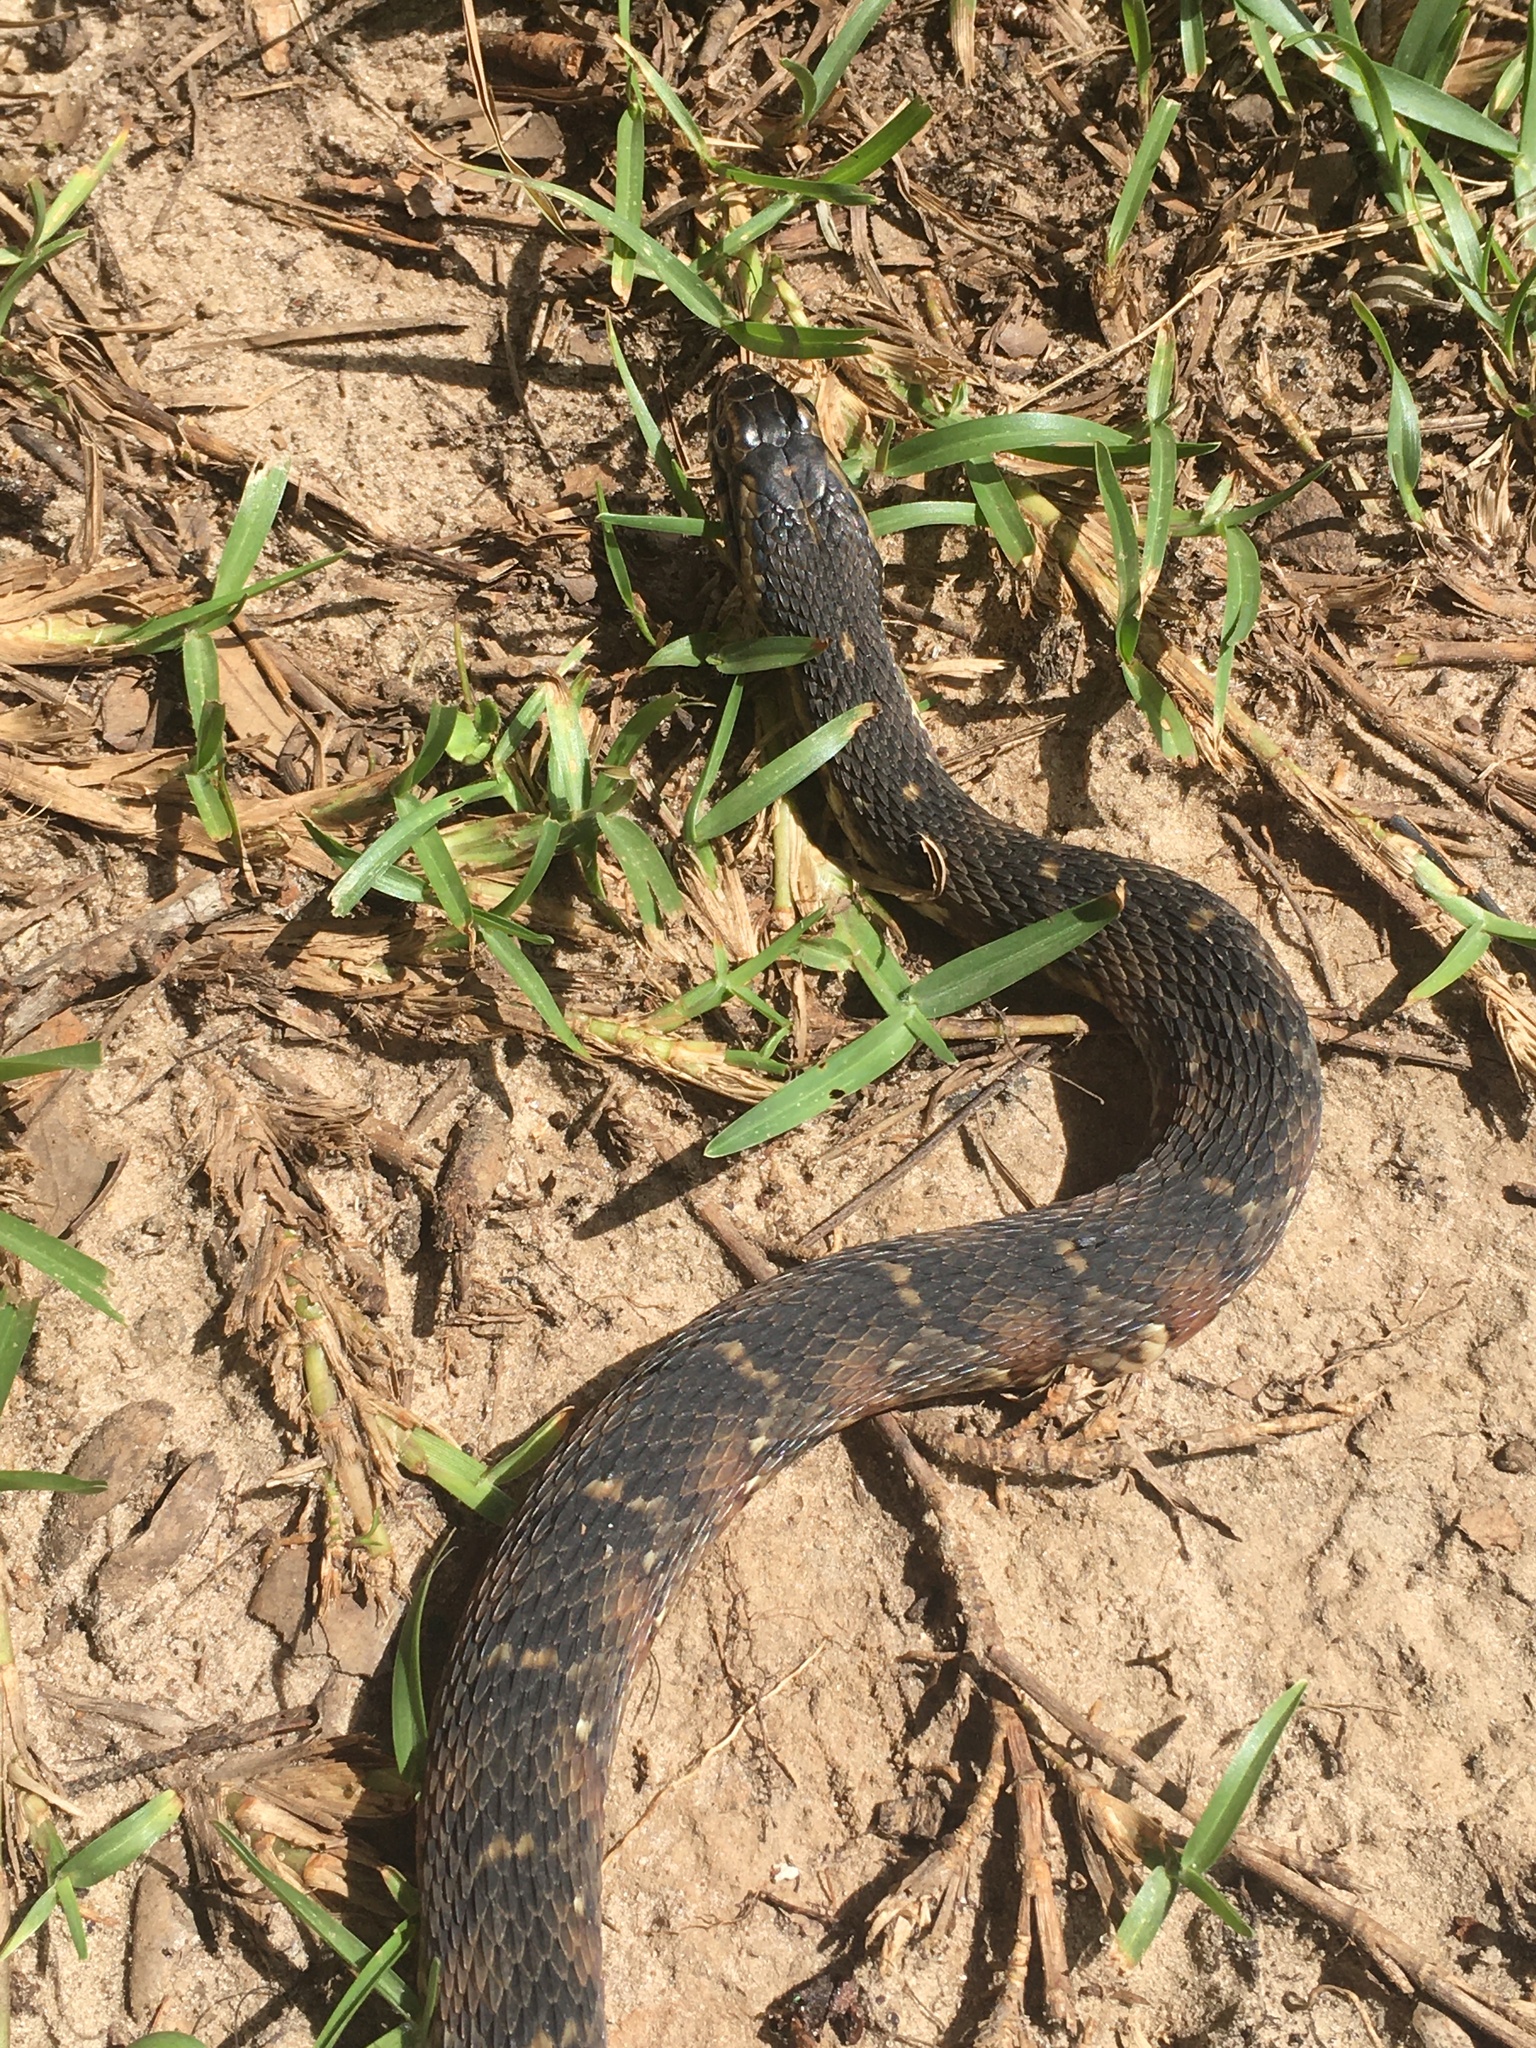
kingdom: Animalia
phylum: Chordata
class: Squamata
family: Colubridae
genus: Nerodia
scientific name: Nerodia fasciata
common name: Southern water snake
